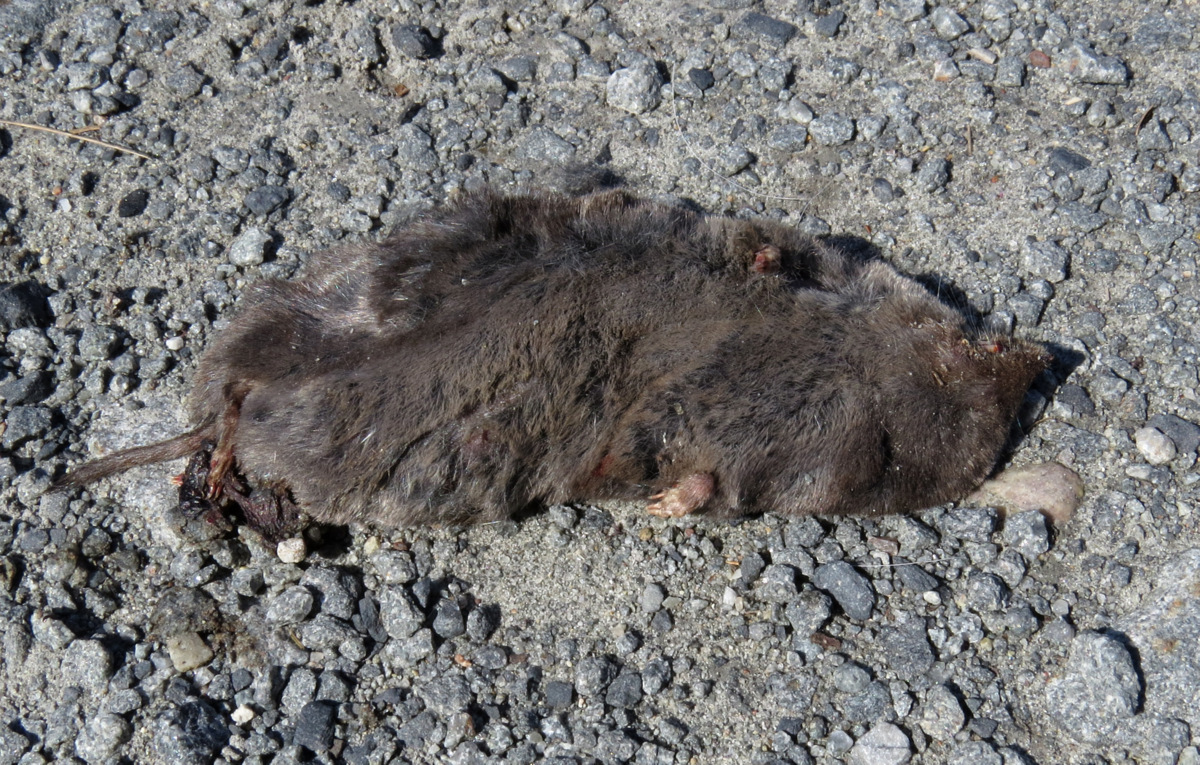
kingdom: Animalia
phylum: Chordata
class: Mammalia
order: Soricomorpha
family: Soricidae
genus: Blarina
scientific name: Blarina brevicauda
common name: Northern short-tailed shrew
